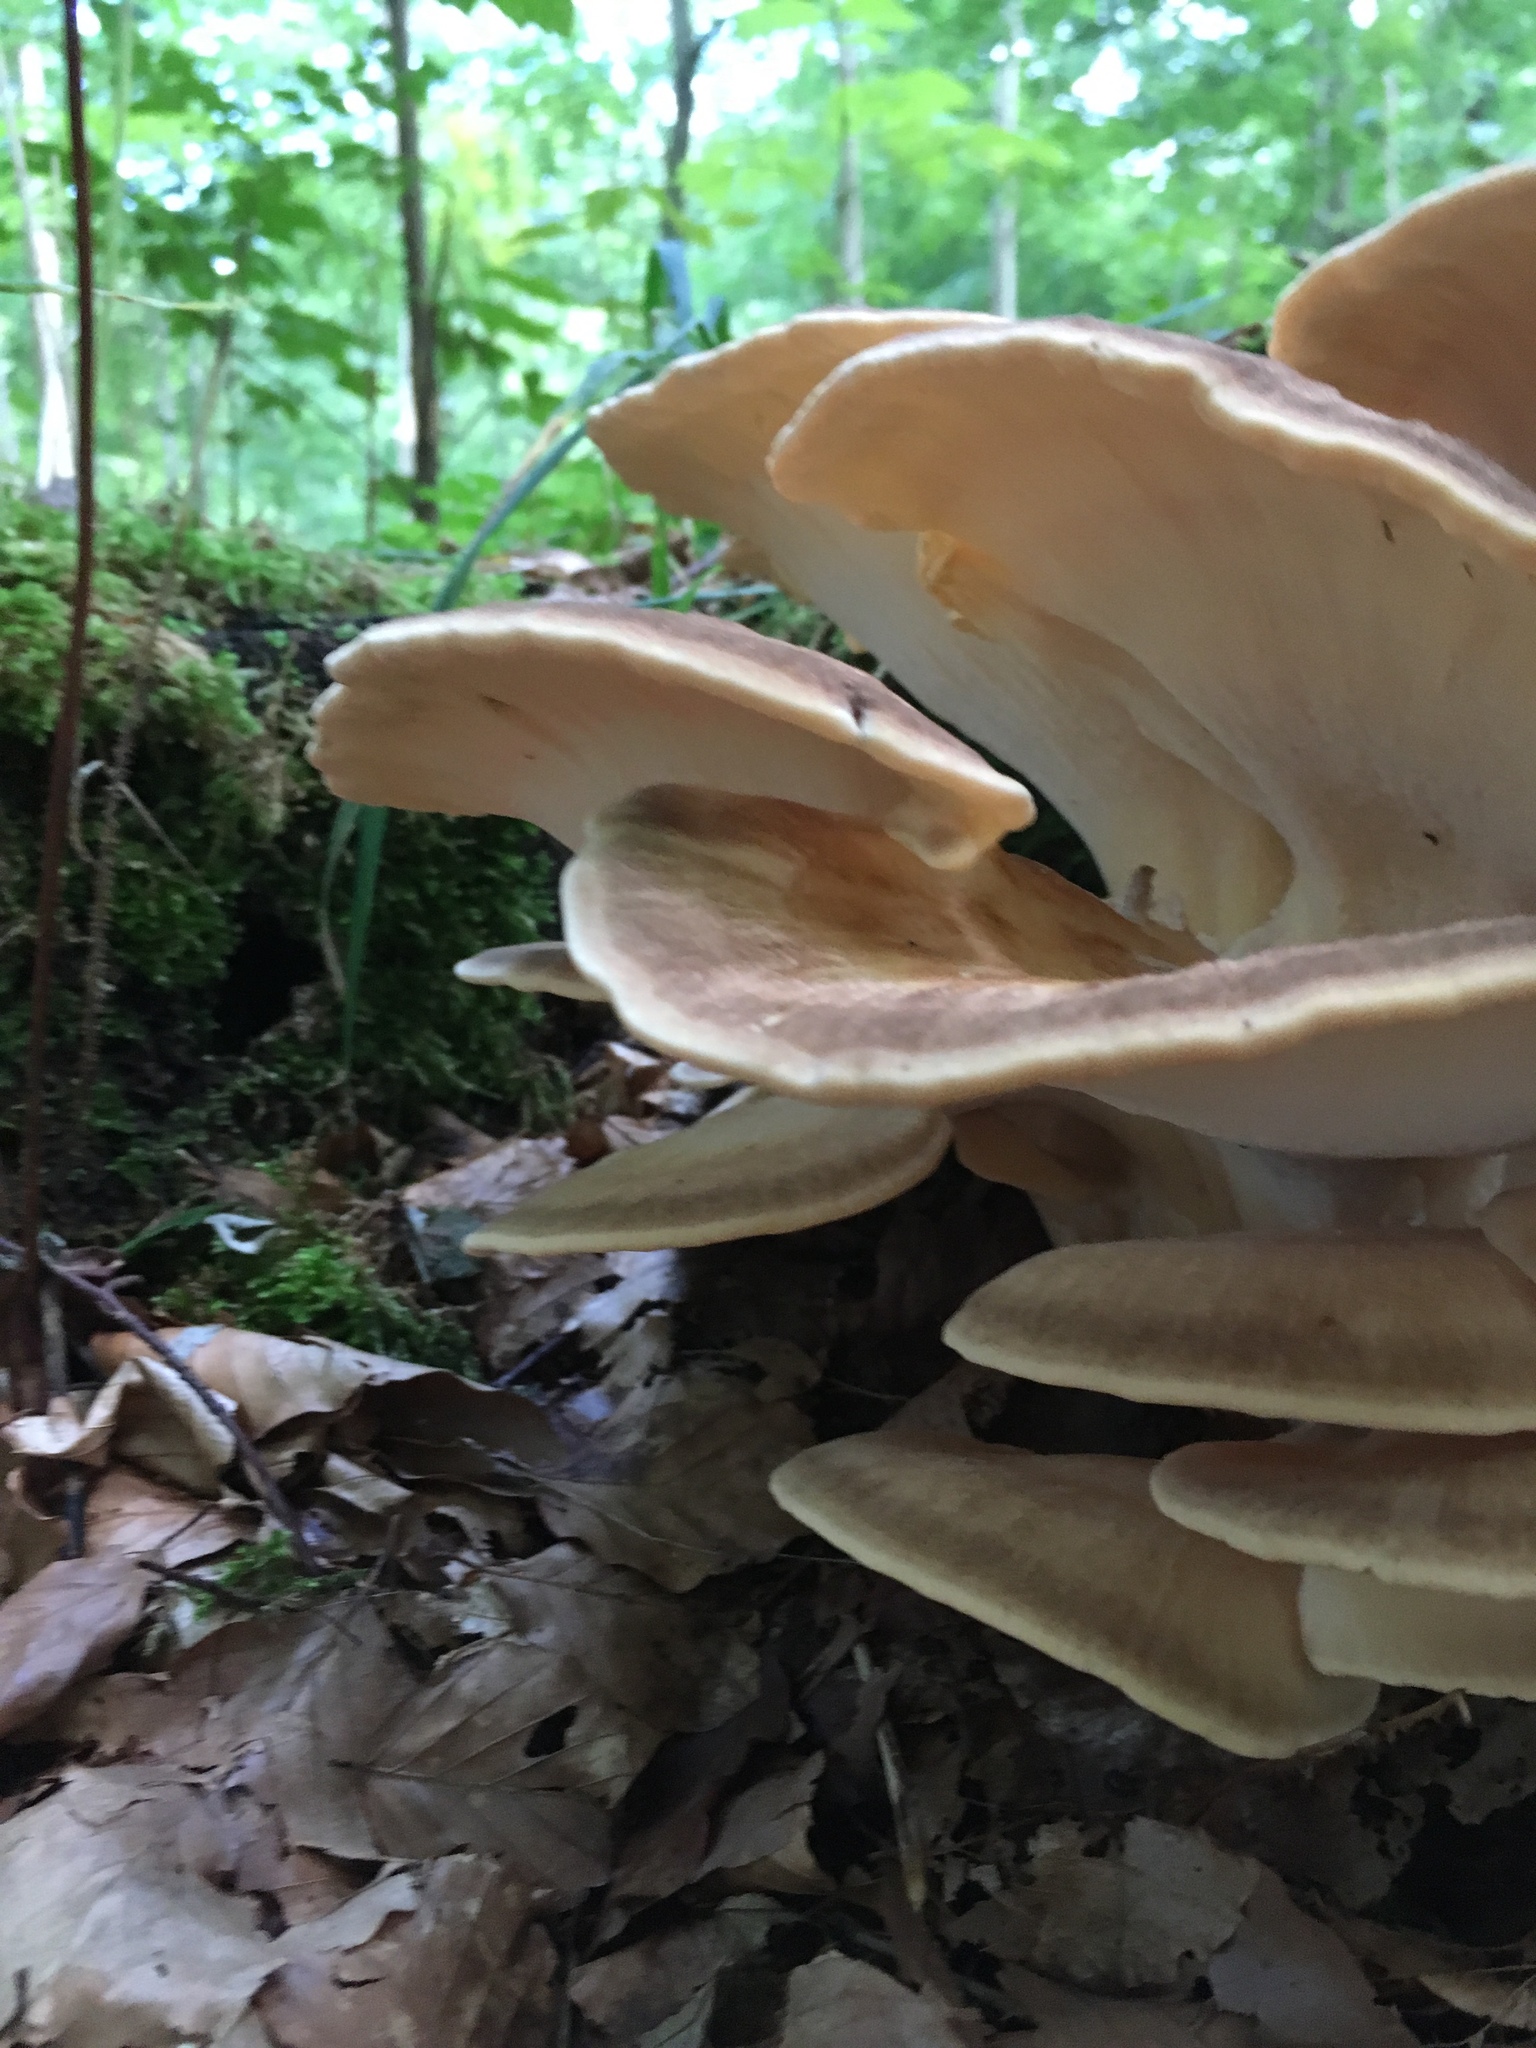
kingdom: Fungi
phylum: Basidiomycota
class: Agaricomycetes
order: Polyporales
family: Meripilaceae
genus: Meripilus
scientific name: Meripilus giganteus
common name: Giant polypore
